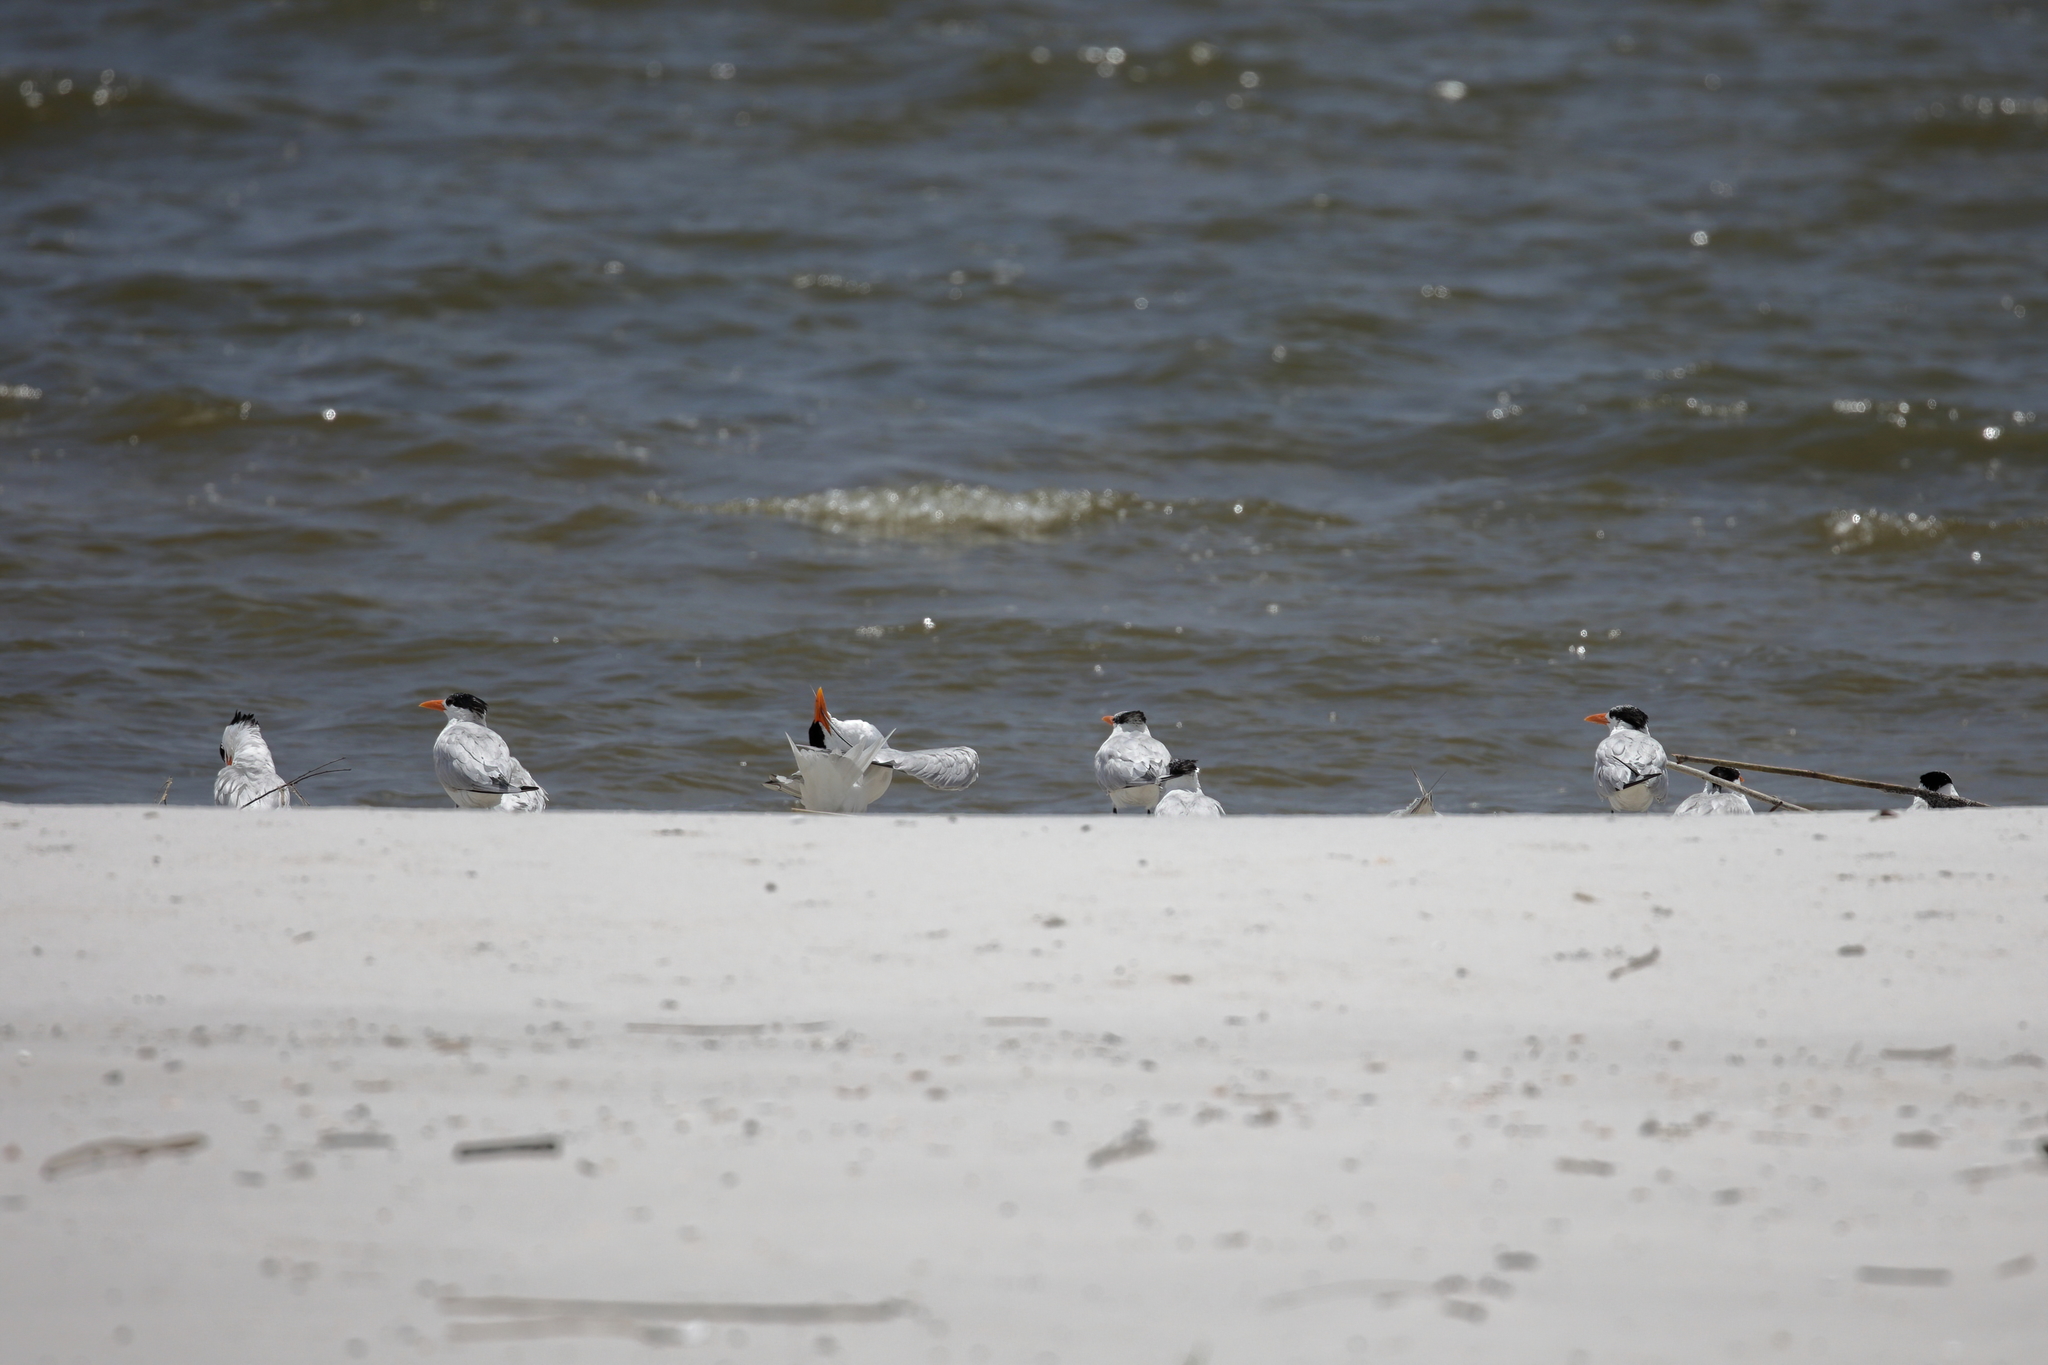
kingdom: Animalia
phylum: Chordata
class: Aves
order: Charadriiformes
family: Laridae
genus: Thalasseus
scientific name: Thalasseus maximus
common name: Royal tern
